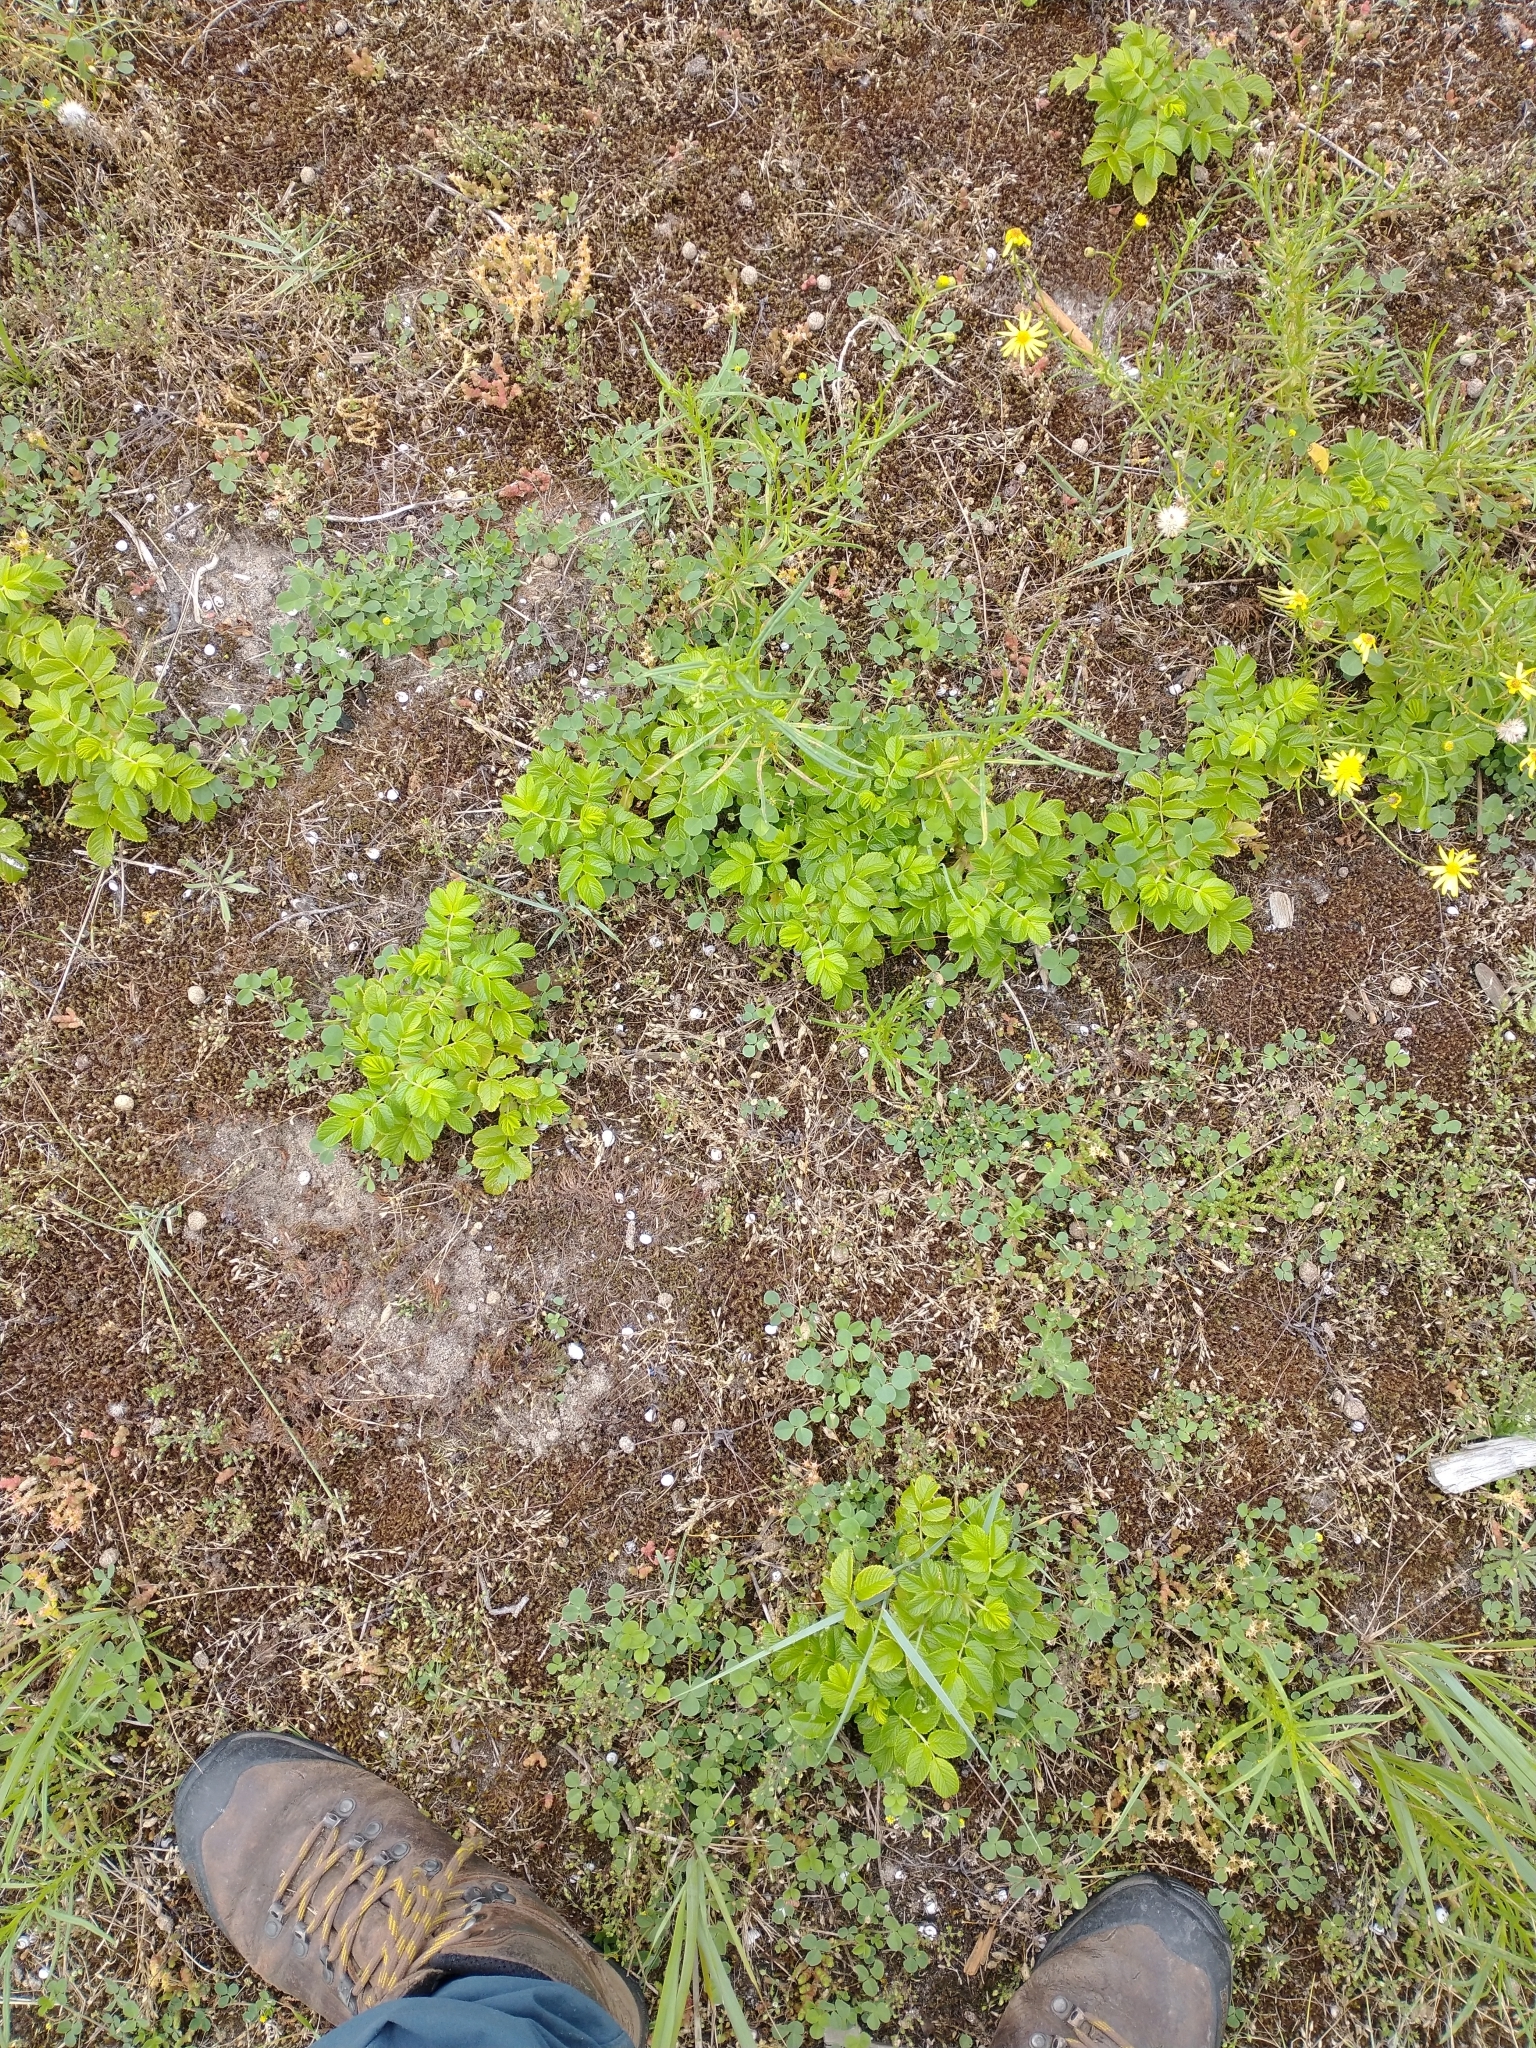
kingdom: Plantae
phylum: Tracheophyta
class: Magnoliopsida
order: Rosales
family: Rosaceae
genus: Rosa
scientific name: Rosa rugosa
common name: Japanese rose
